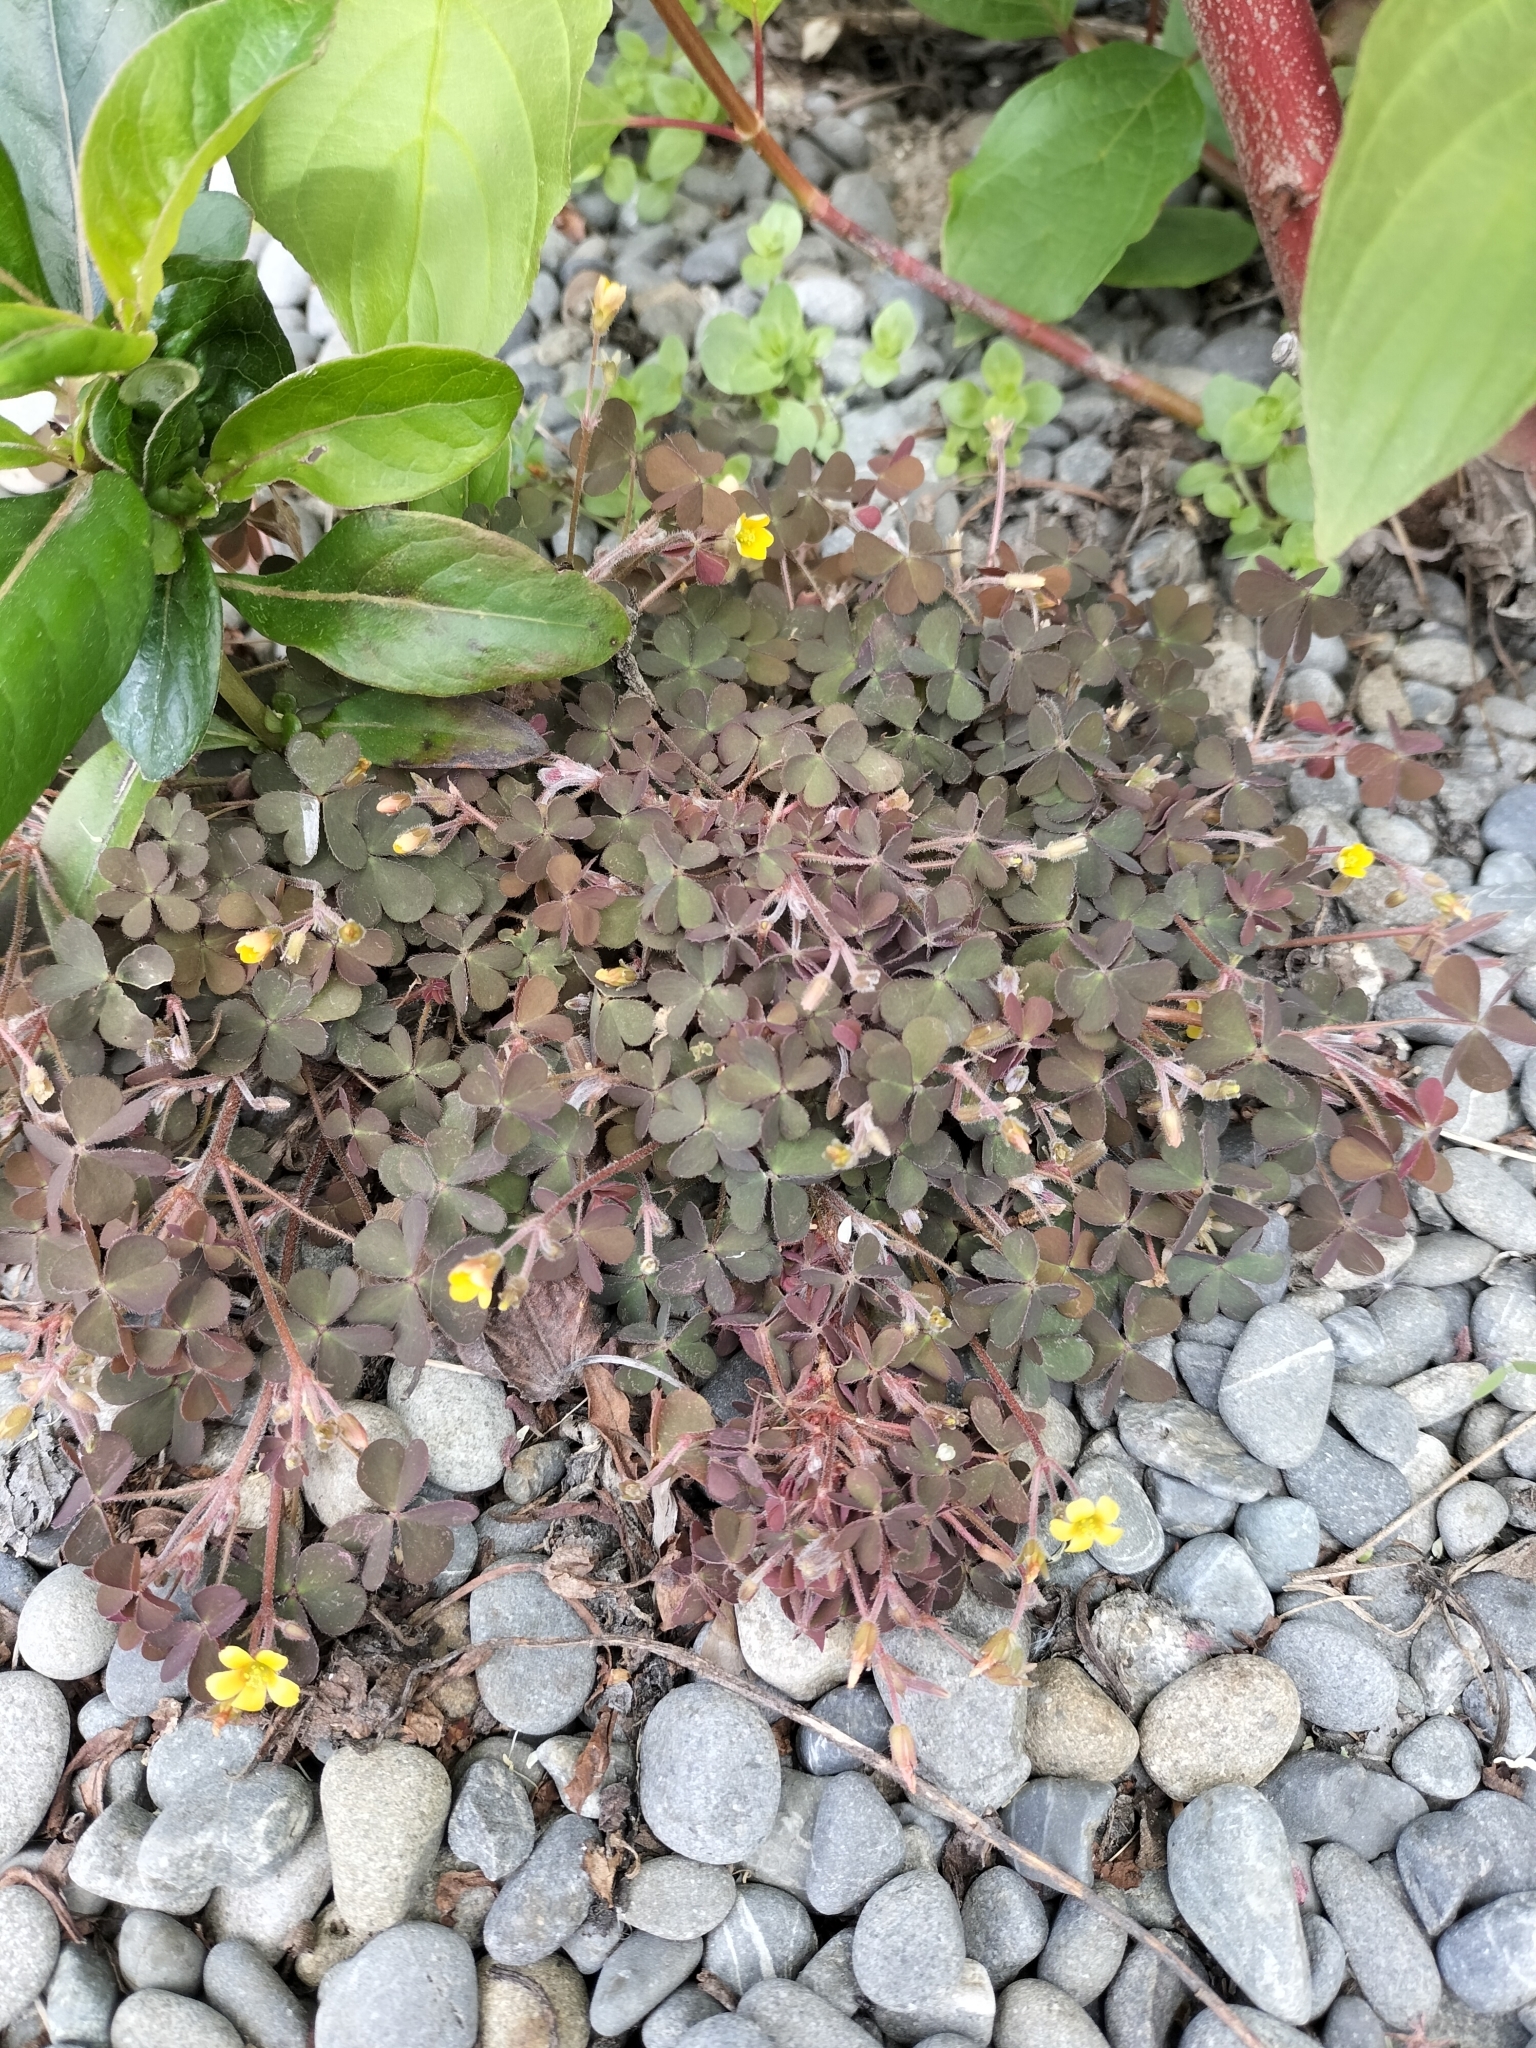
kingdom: Plantae
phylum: Tracheophyta
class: Magnoliopsida
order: Oxalidales
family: Oxalidaceae
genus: Oxalis
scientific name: Oxalis corniculata
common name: Procumbent yellow-sorrel
